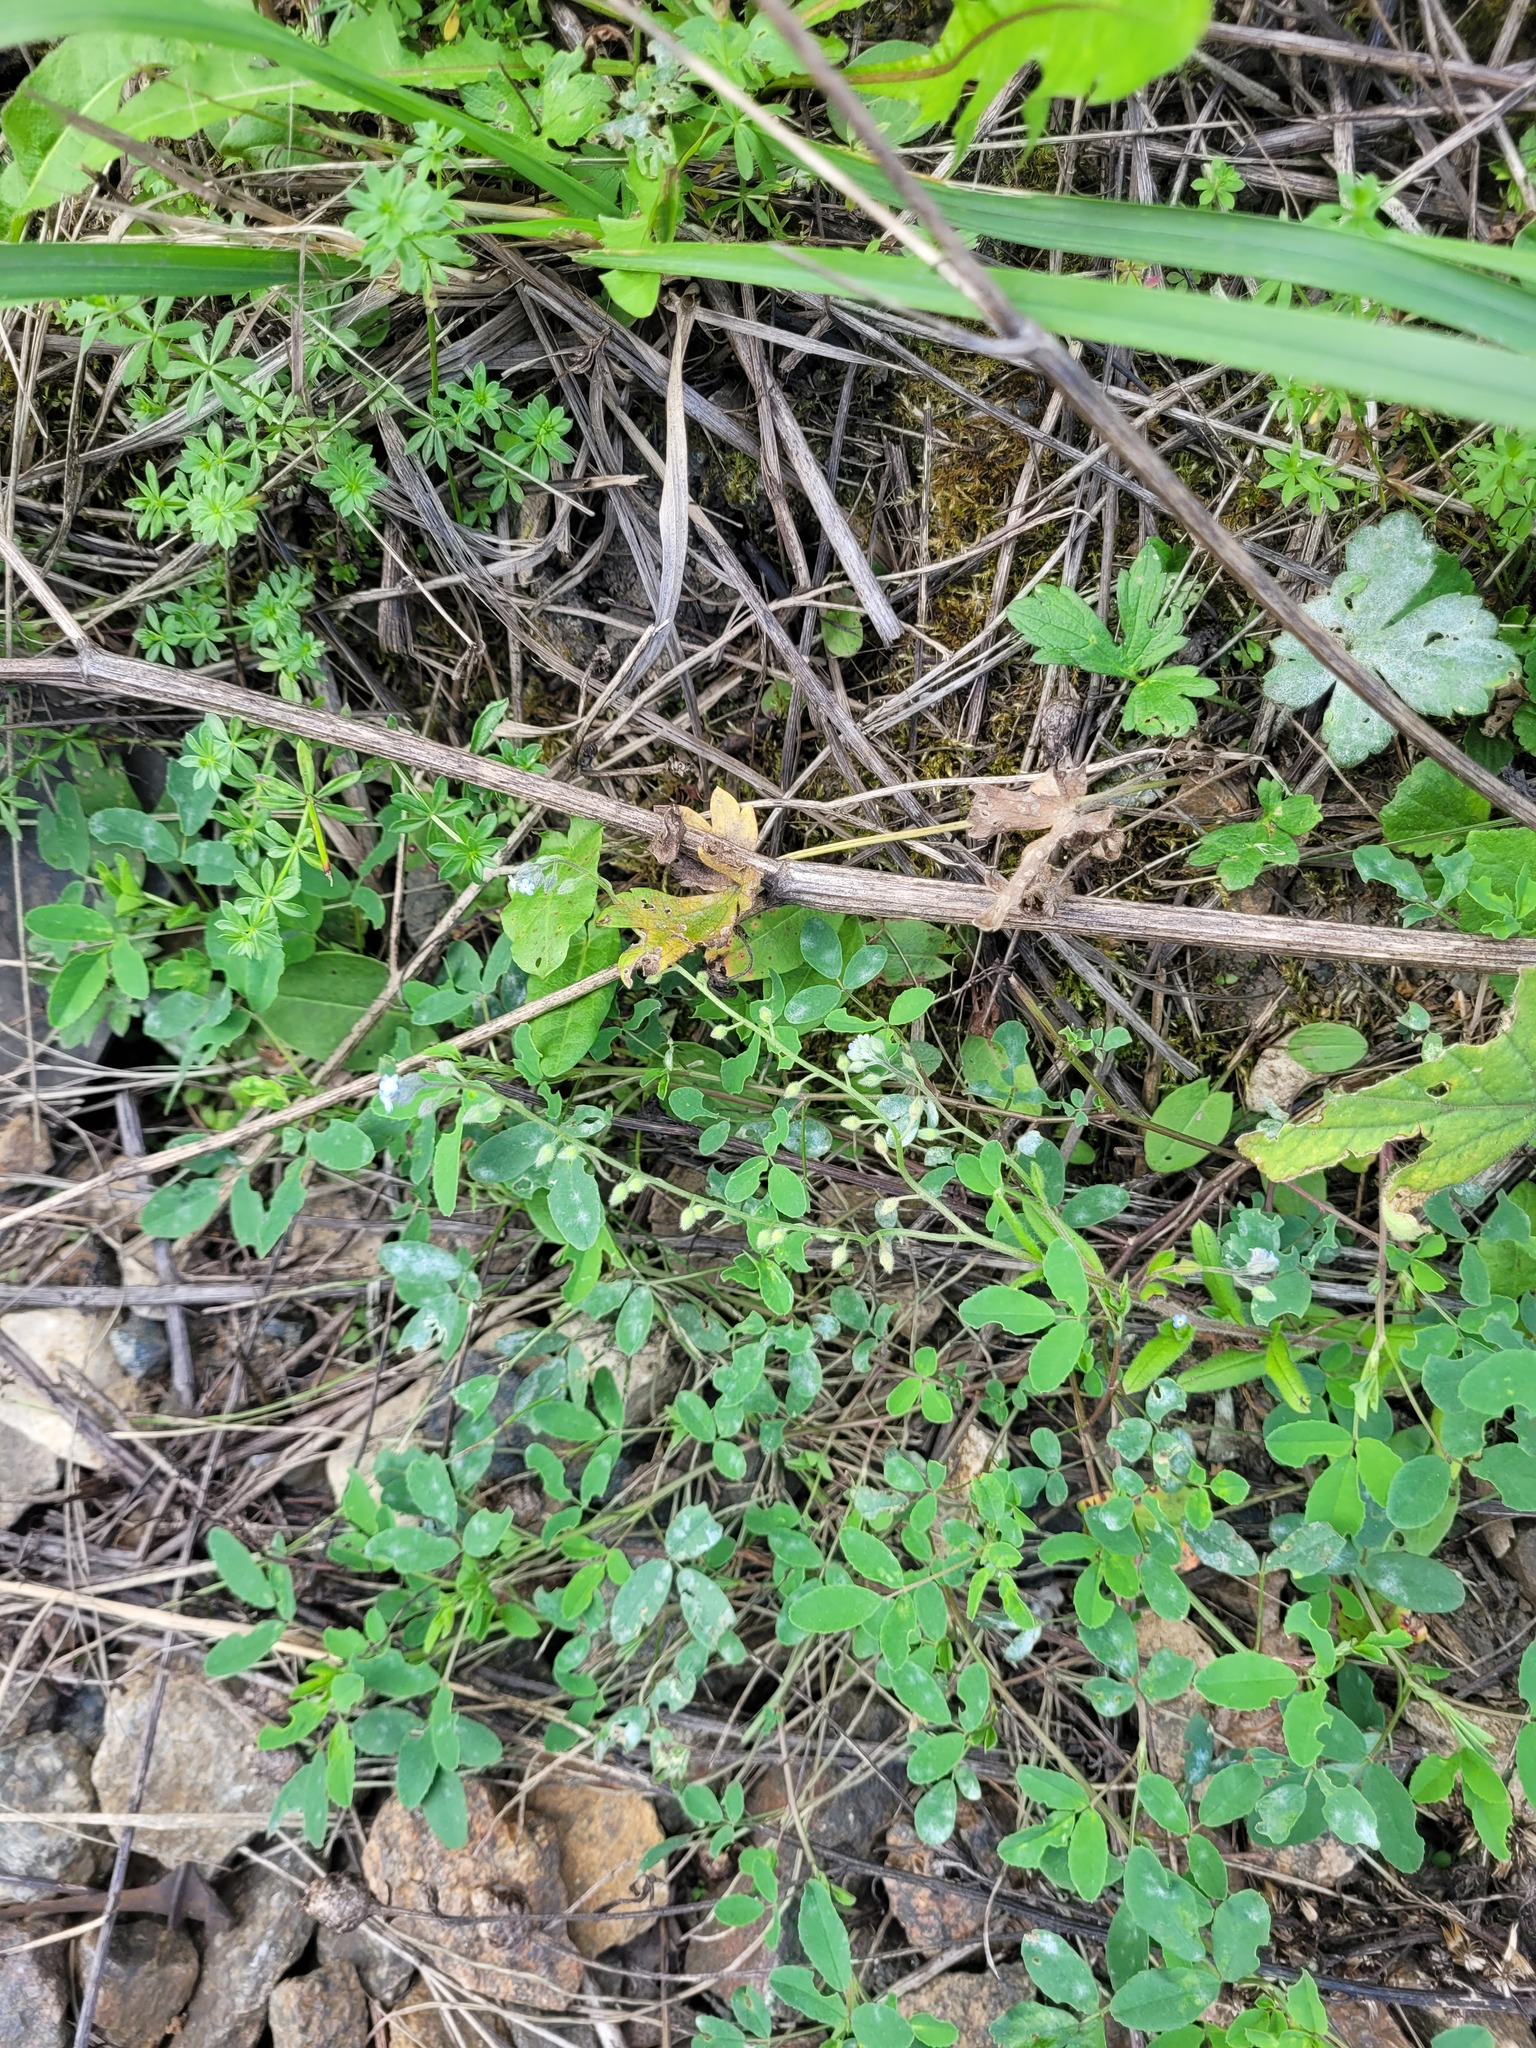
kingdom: Plantae
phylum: Tracheophyta
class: Magnoliopsida
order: Boraginales
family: Boraginaceae
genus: Myosotis
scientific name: Myosotis arvensis
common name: Field forget-me-not
